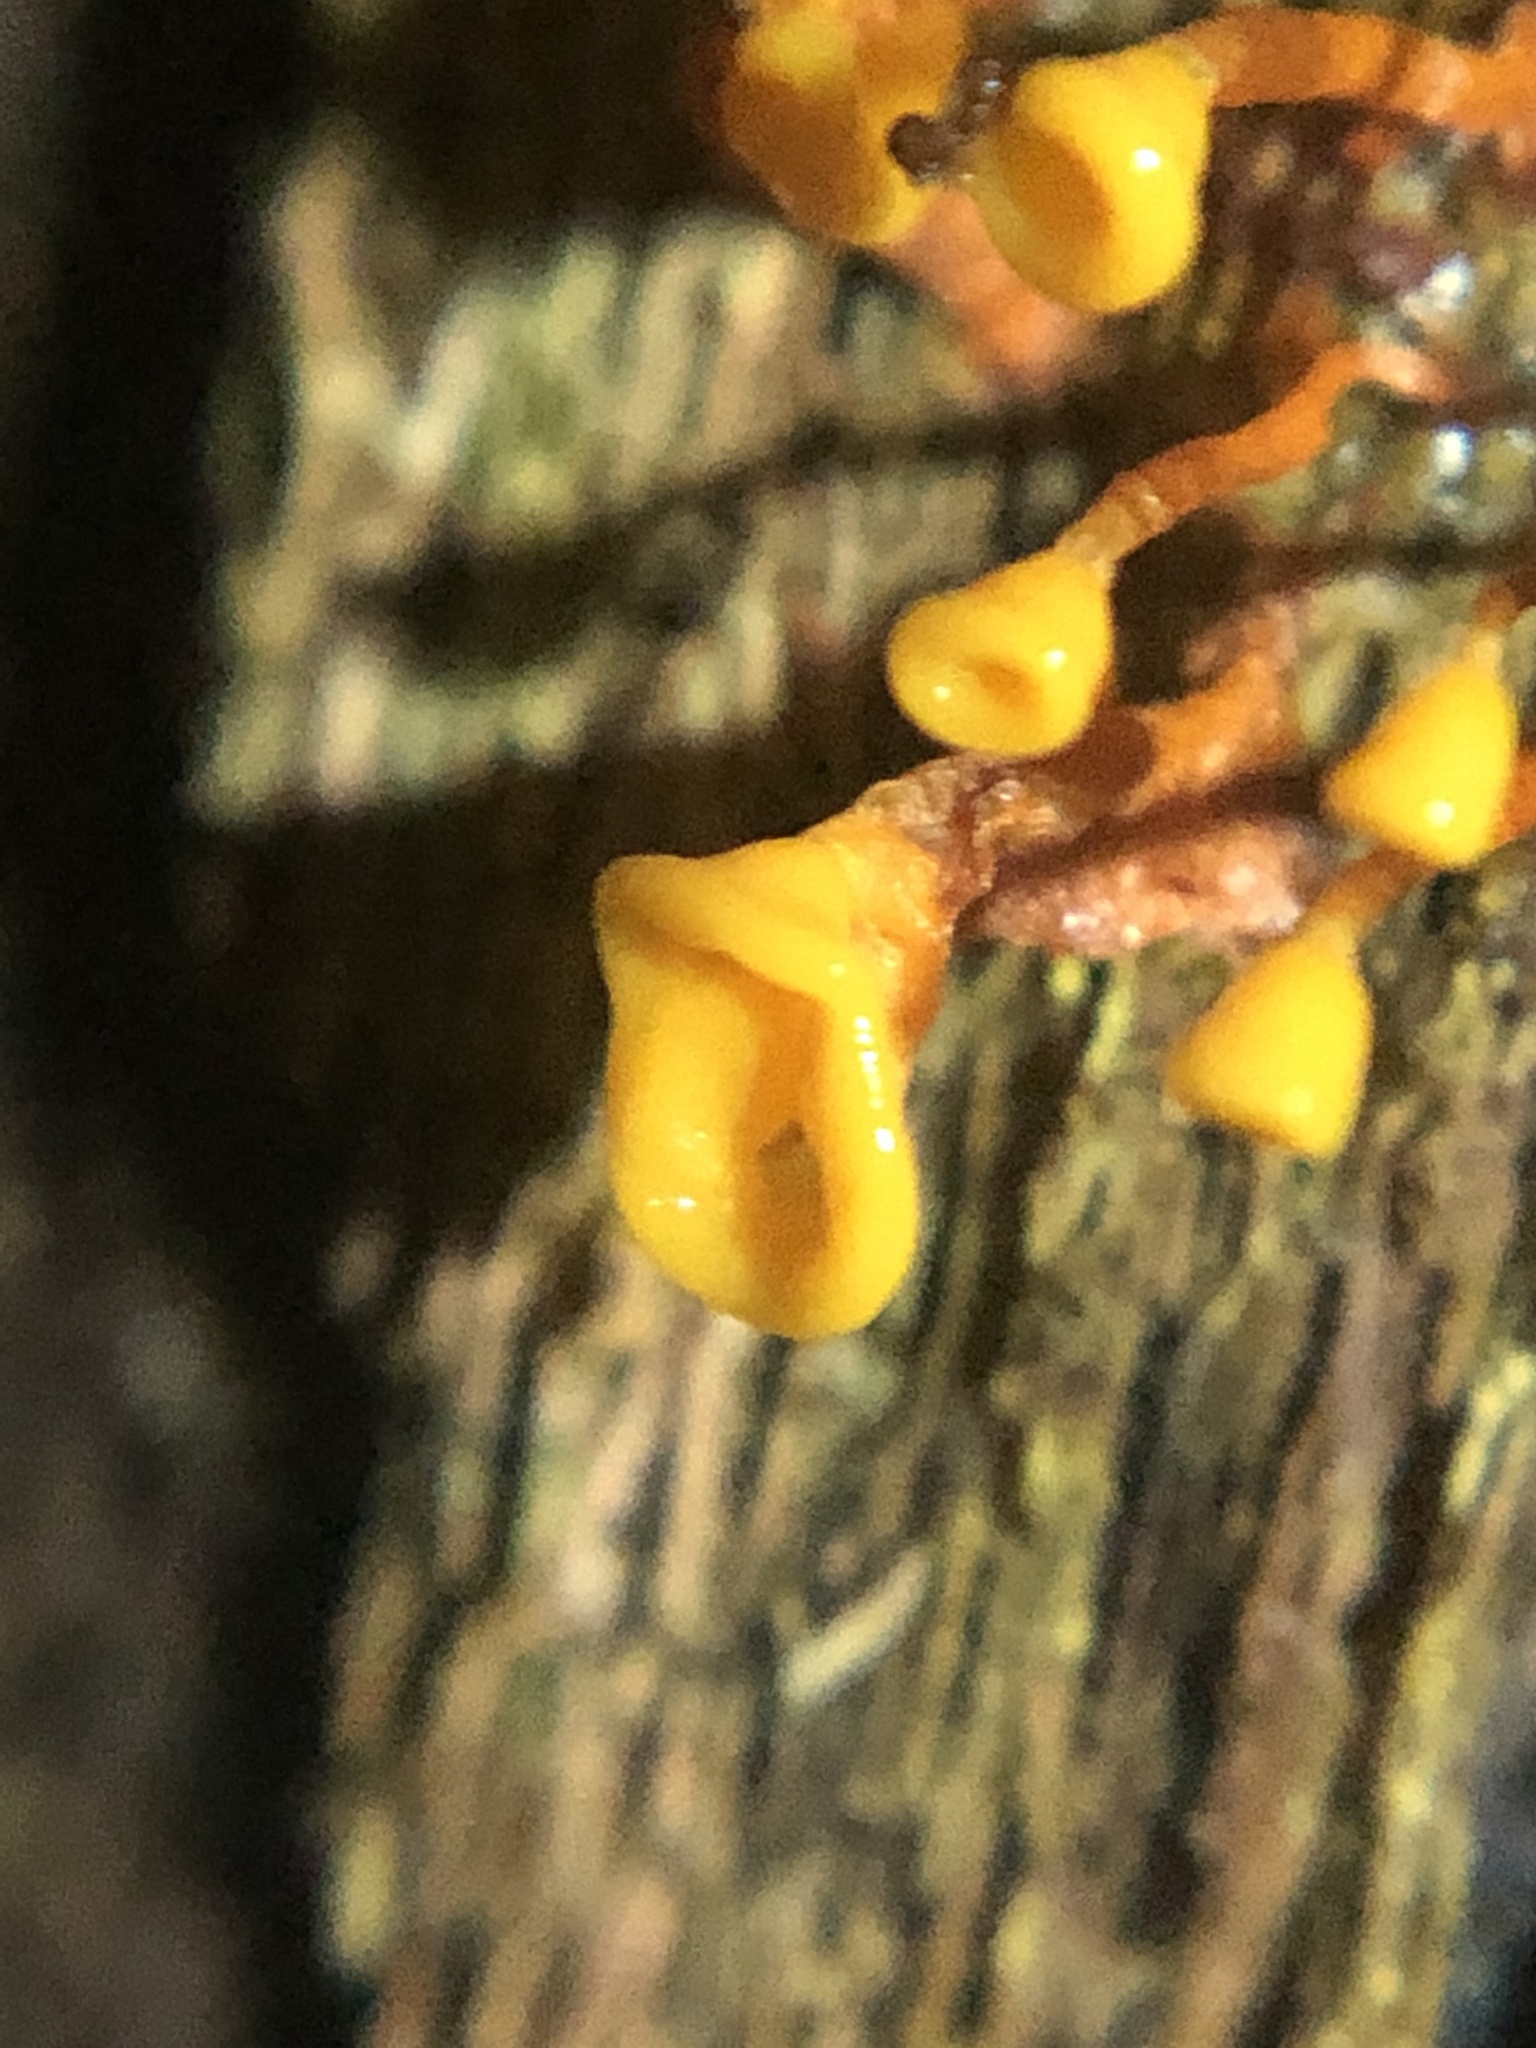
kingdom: Protozoa
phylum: Mycetozoa
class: Myxomycetes
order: Physarales
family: Physaraceae
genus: Physarella
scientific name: Physarella oblonga
